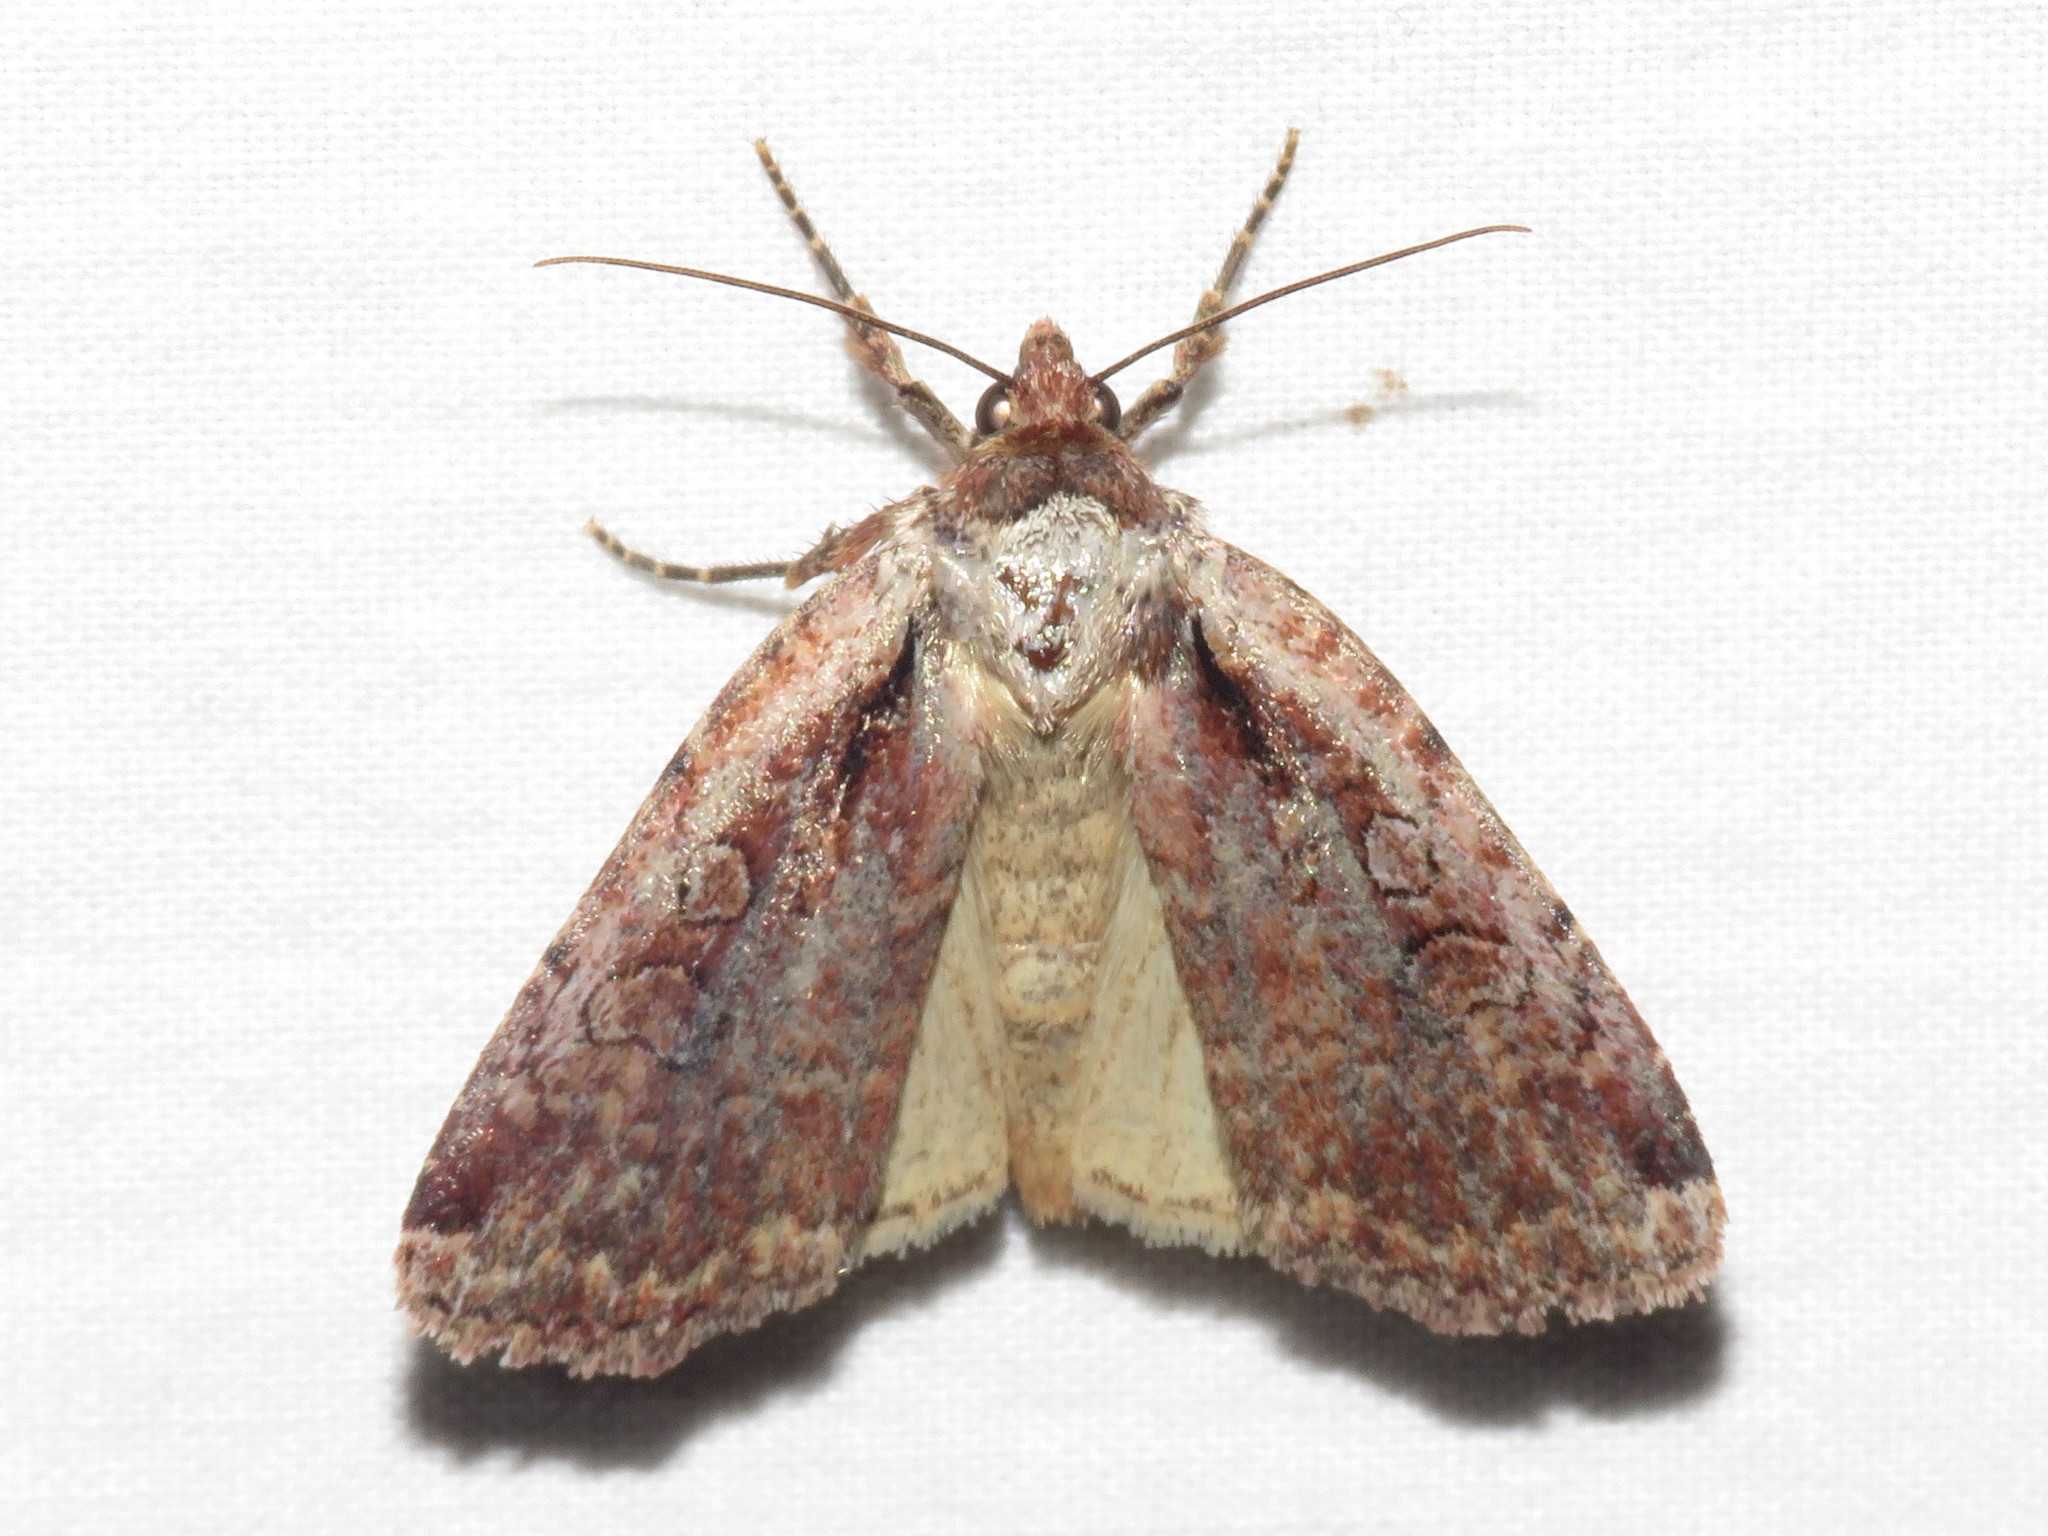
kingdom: Animalia
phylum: Arthropoda
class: Insecta
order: Lepidoptera
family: Noctuidae
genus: Eueretagrotis
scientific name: Eueretagrotis attentus
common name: Attentive dart
